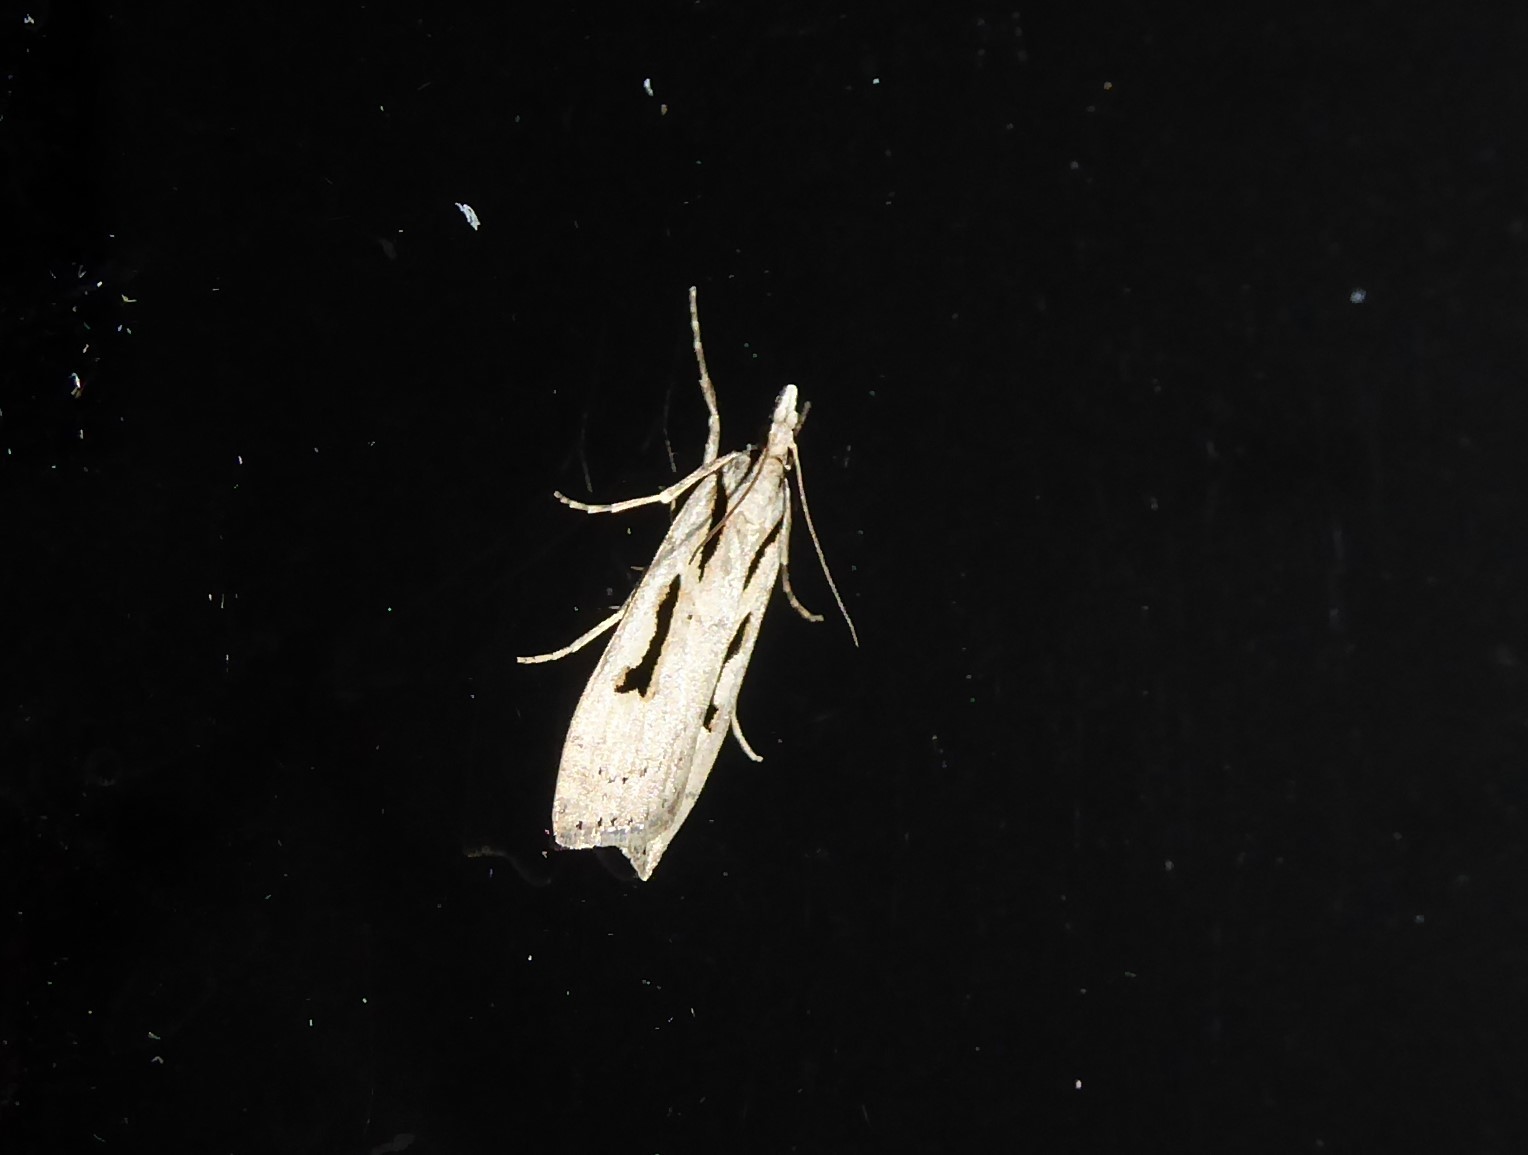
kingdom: Animalia
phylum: Arthropoda
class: Insecta
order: Lepidoptera
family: Crambidae
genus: Scoparia
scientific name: Scoparia rotuellus
